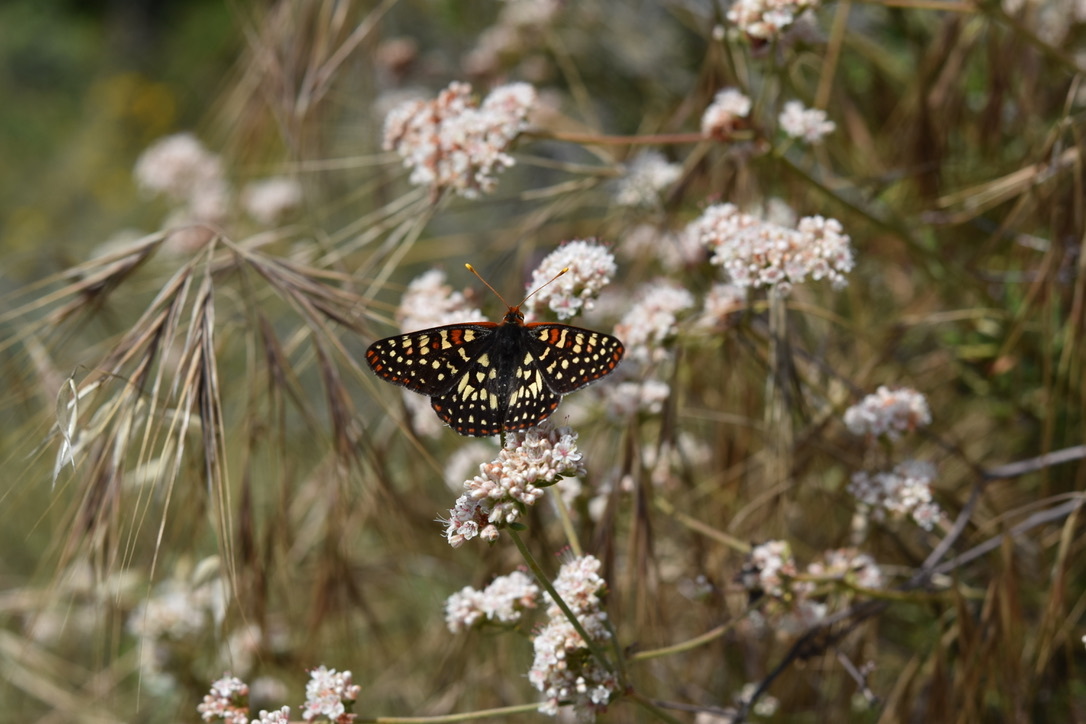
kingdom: Animalia
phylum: Arthropoda
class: Insecta
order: Lepidoptera
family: Nymphalidae
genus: Occidryas
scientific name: Occidryas chalcedona
